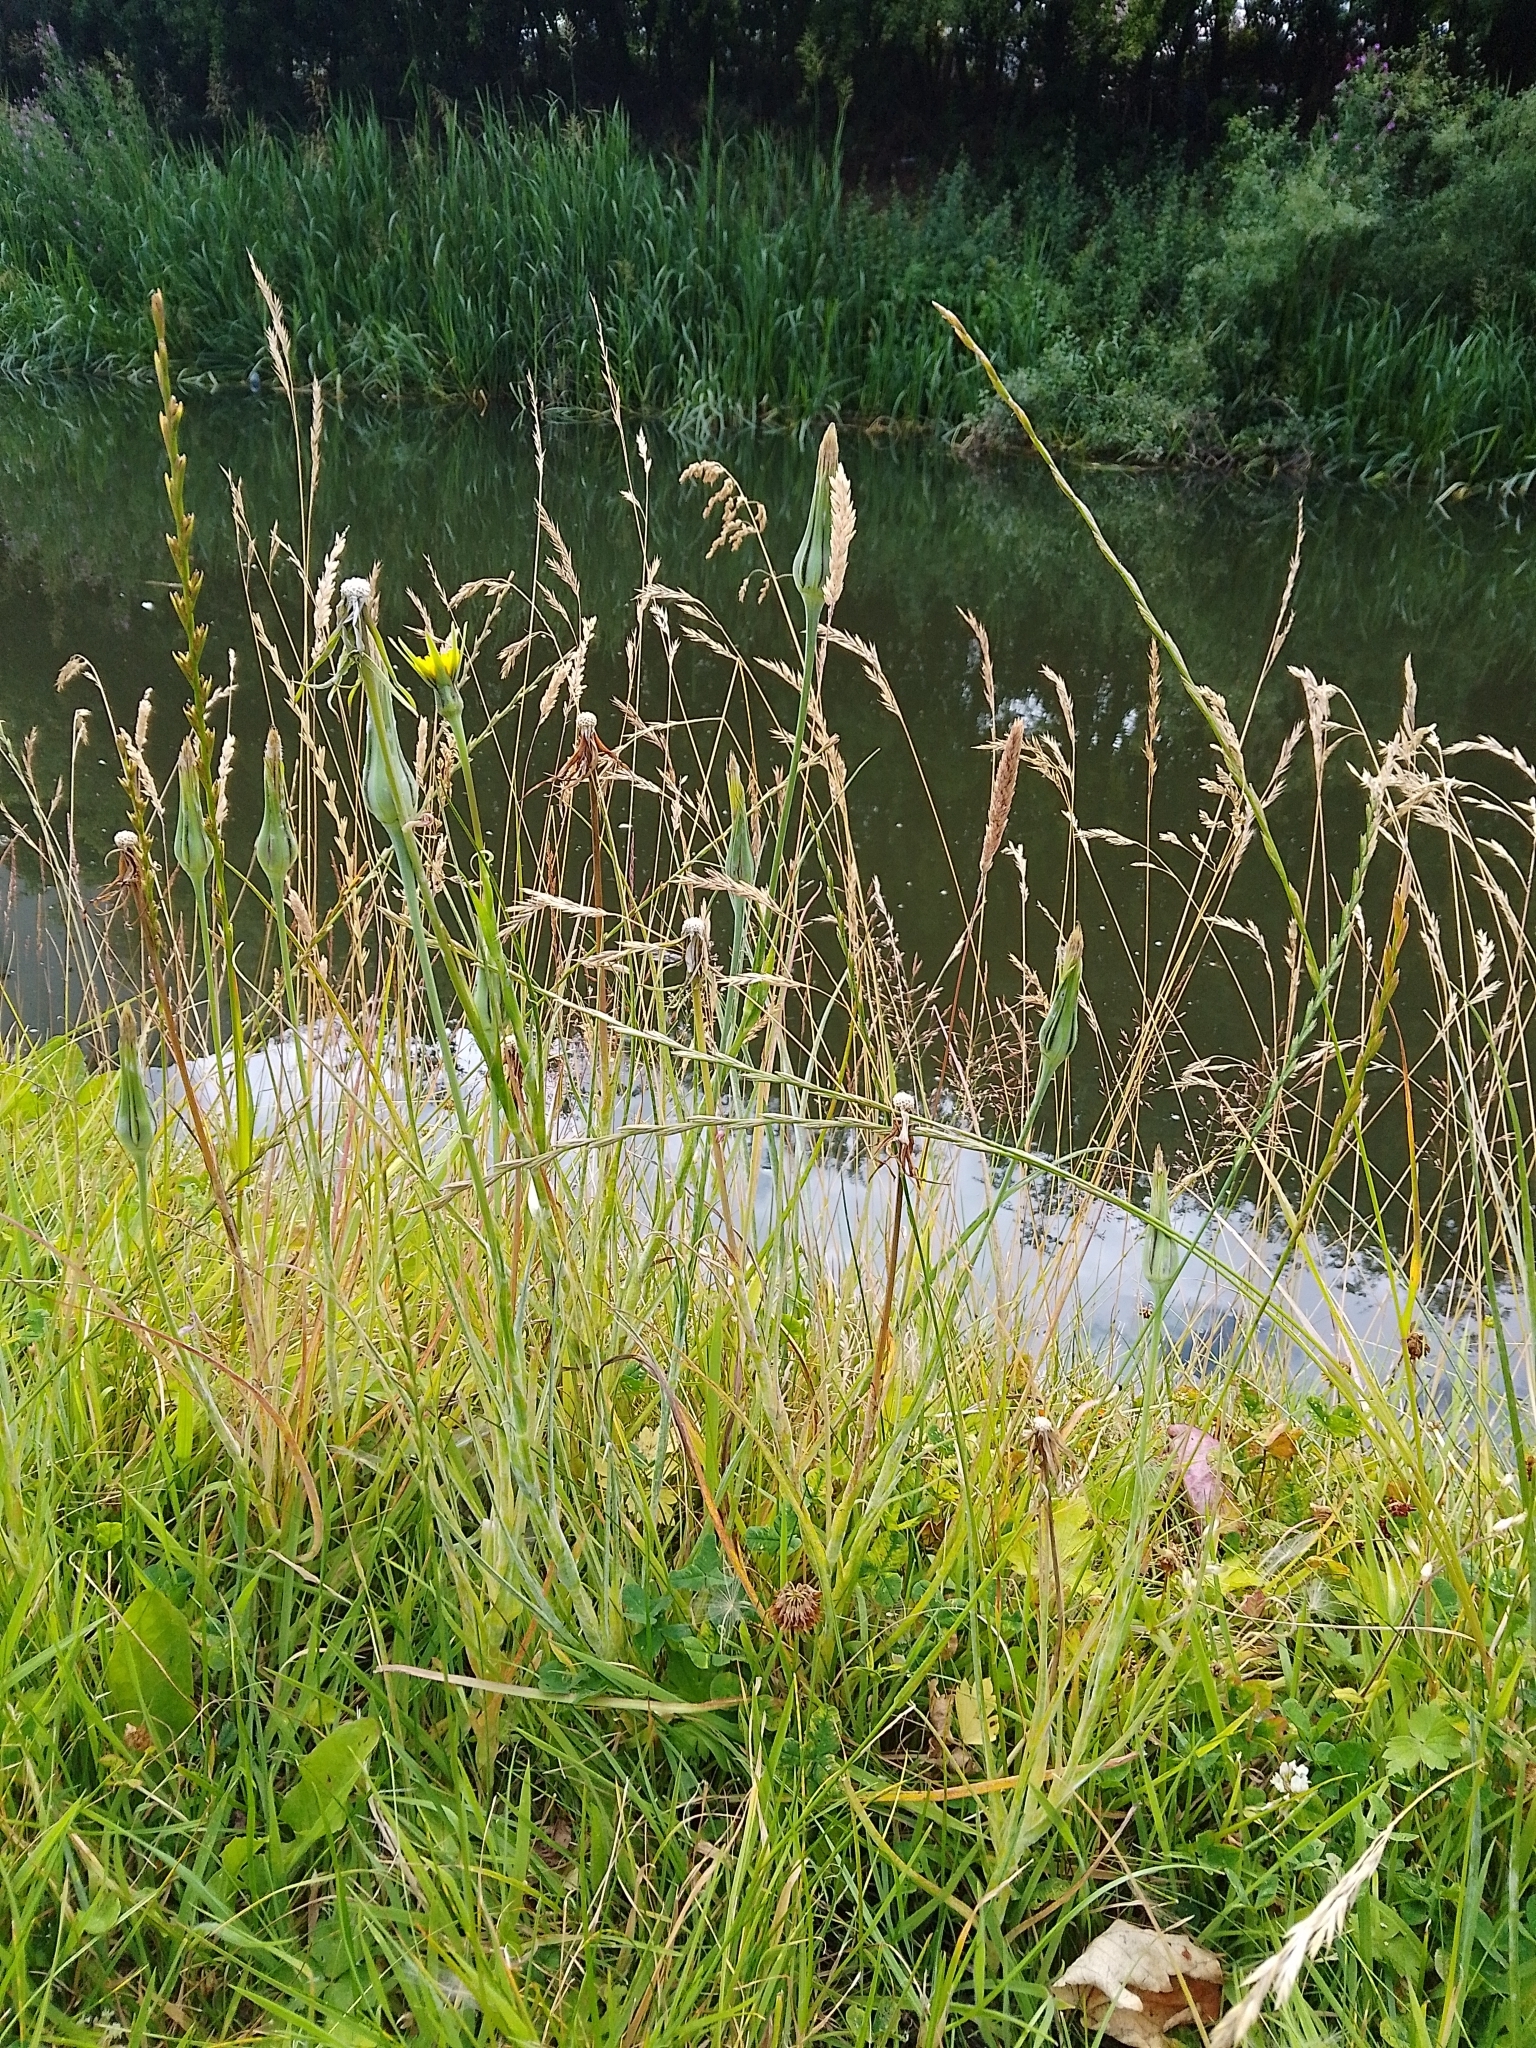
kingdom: Plantae
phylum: Tracheophyta
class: Magnoliopsida
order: Asterales
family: Asteraceae
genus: Tragopogon
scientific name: Tragopogon pratensis
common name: Goat's-beard
